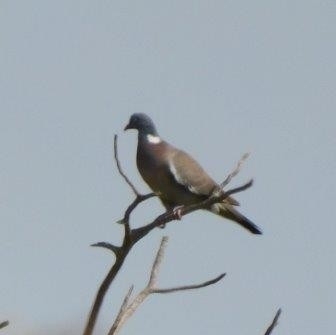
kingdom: Animalia
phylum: Chordata
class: Aves
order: Columbiformes
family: Columbidae
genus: Columba
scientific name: Columba palumbus
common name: Common wood pigeon
